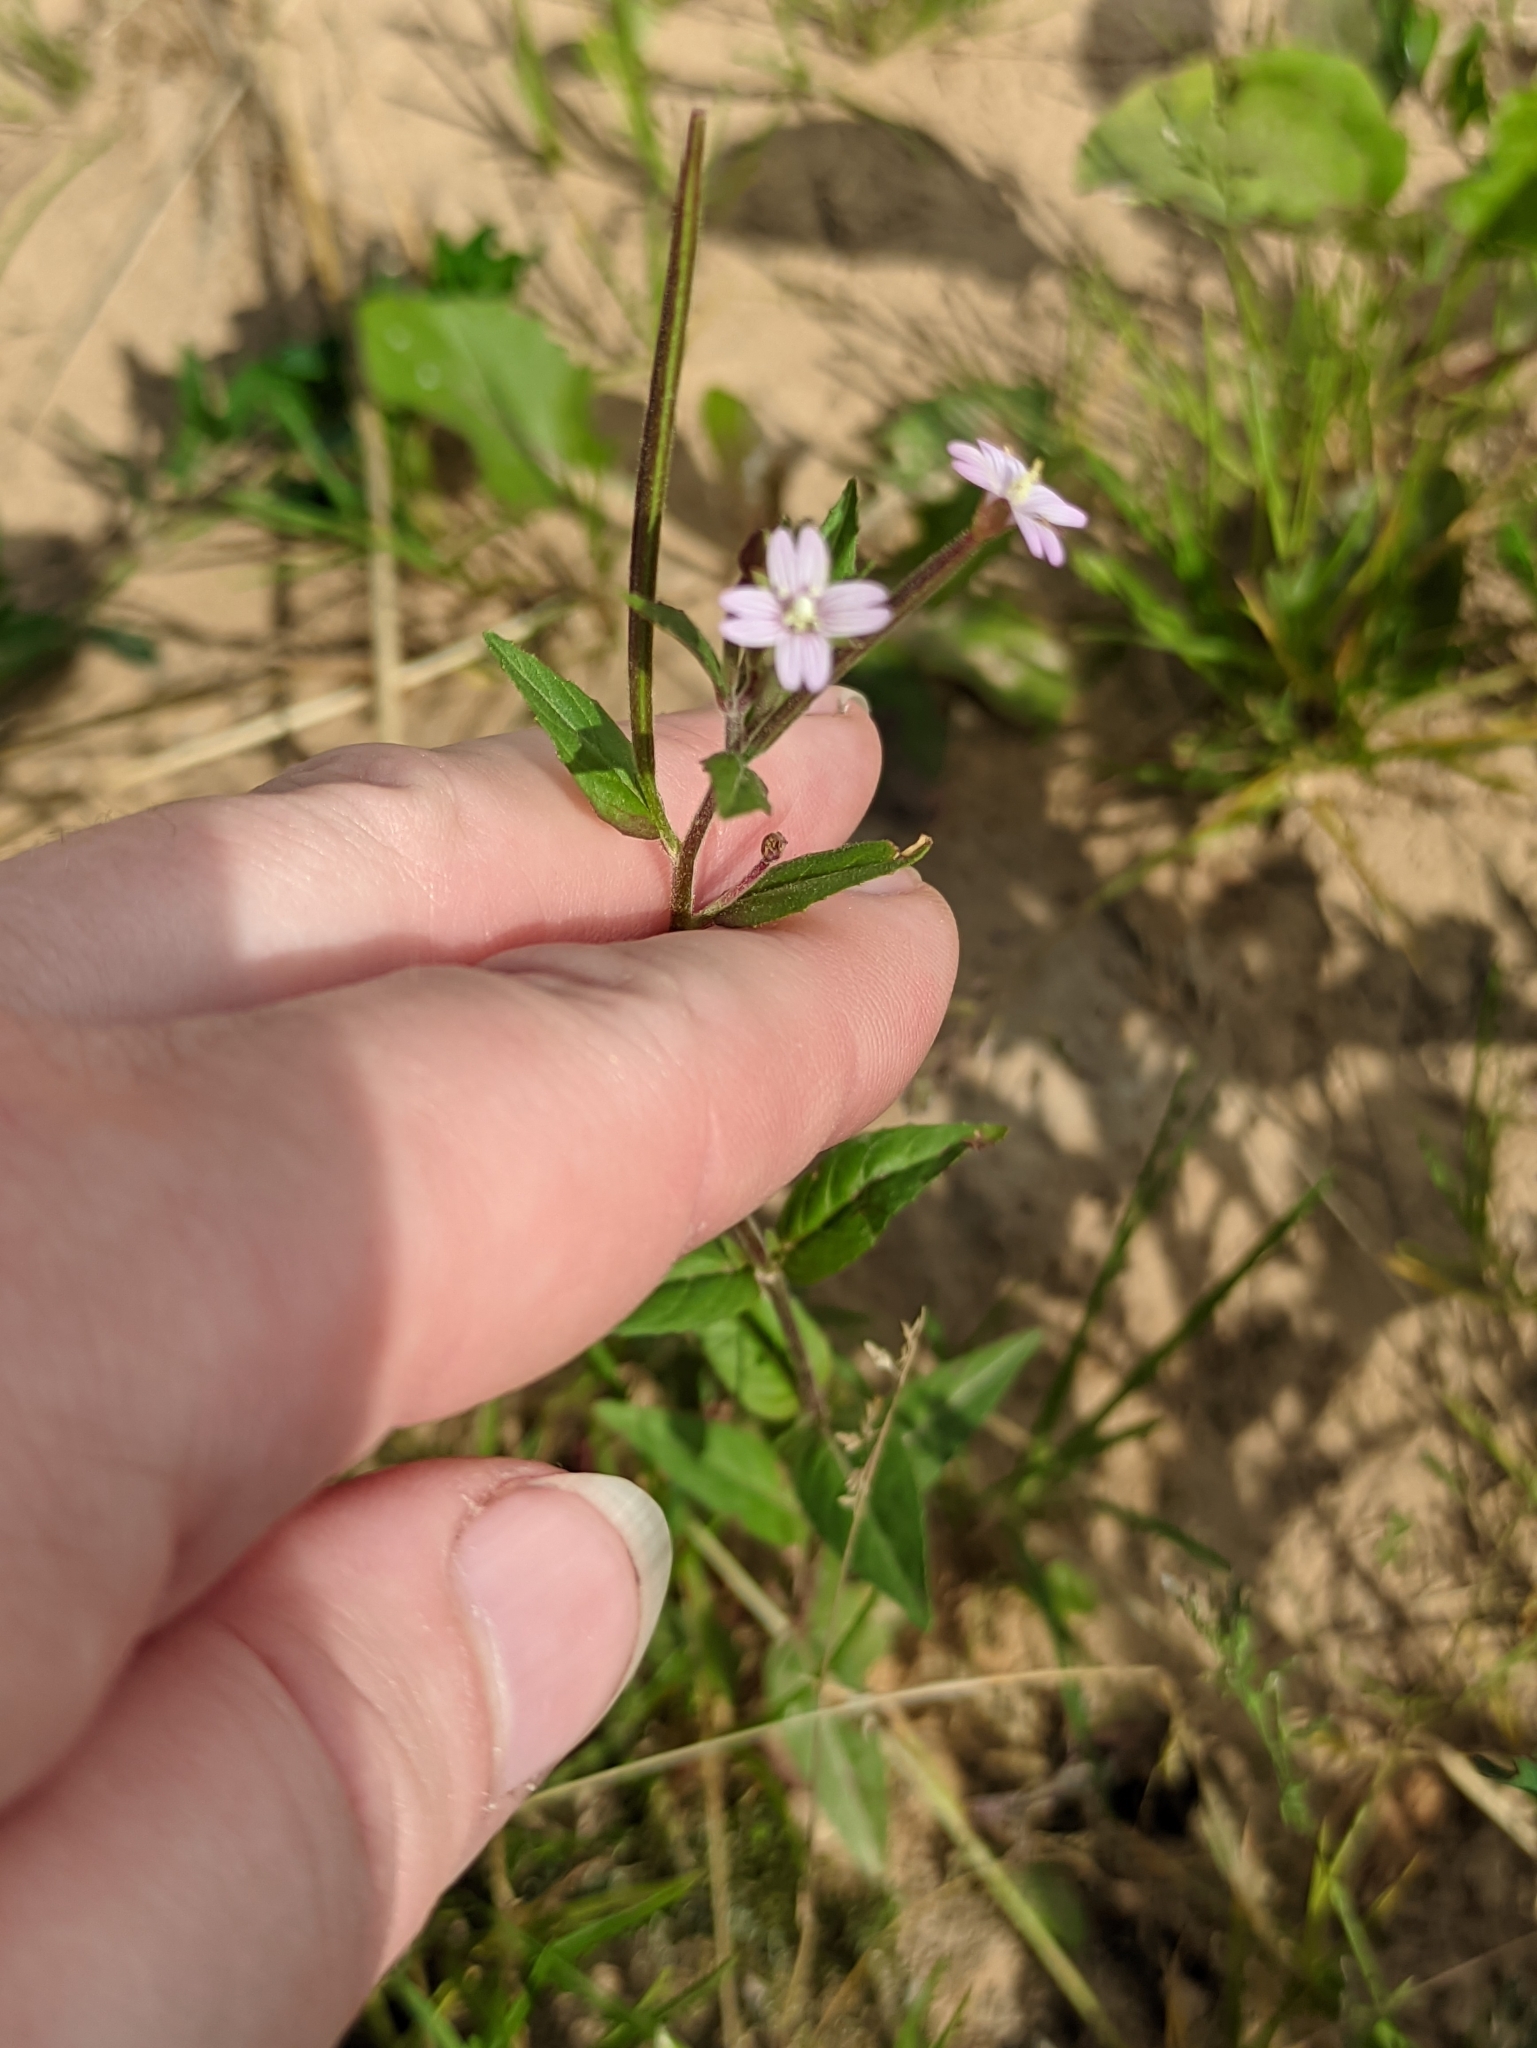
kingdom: Plantae
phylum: Tracheophyta
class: Magnoliopsida
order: Myrtales
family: Onagraceae
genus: Epilobium
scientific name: Epilobium ciliatum
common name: American willowherb
